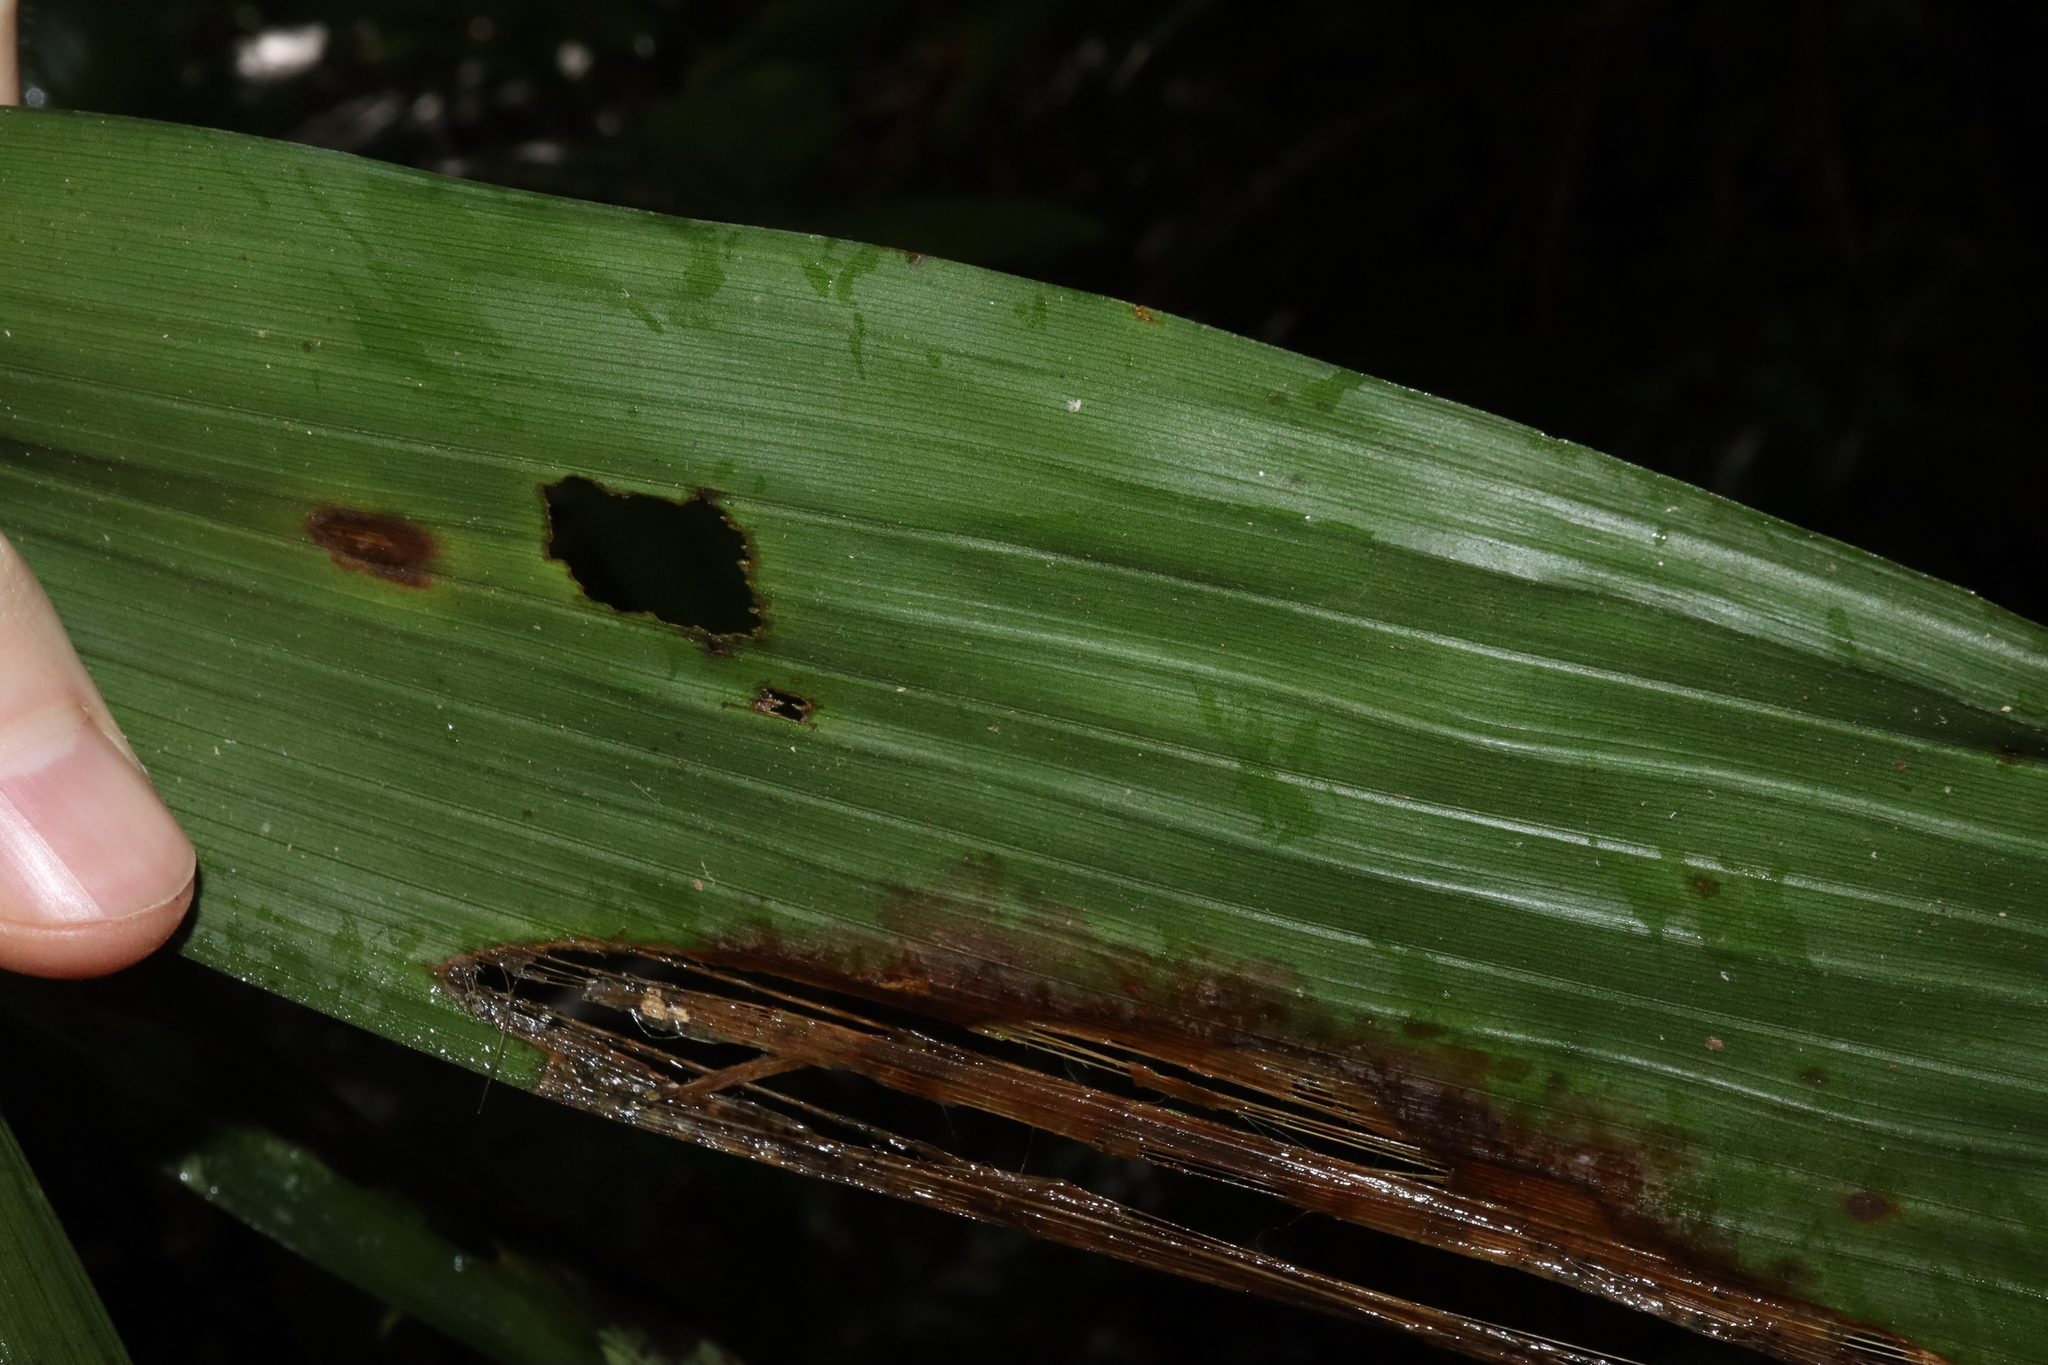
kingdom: Plantae
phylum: Tracheophyta
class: Liliopsida
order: Arecales
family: Arecaceae
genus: Linospadix
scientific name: Linospadix minor
